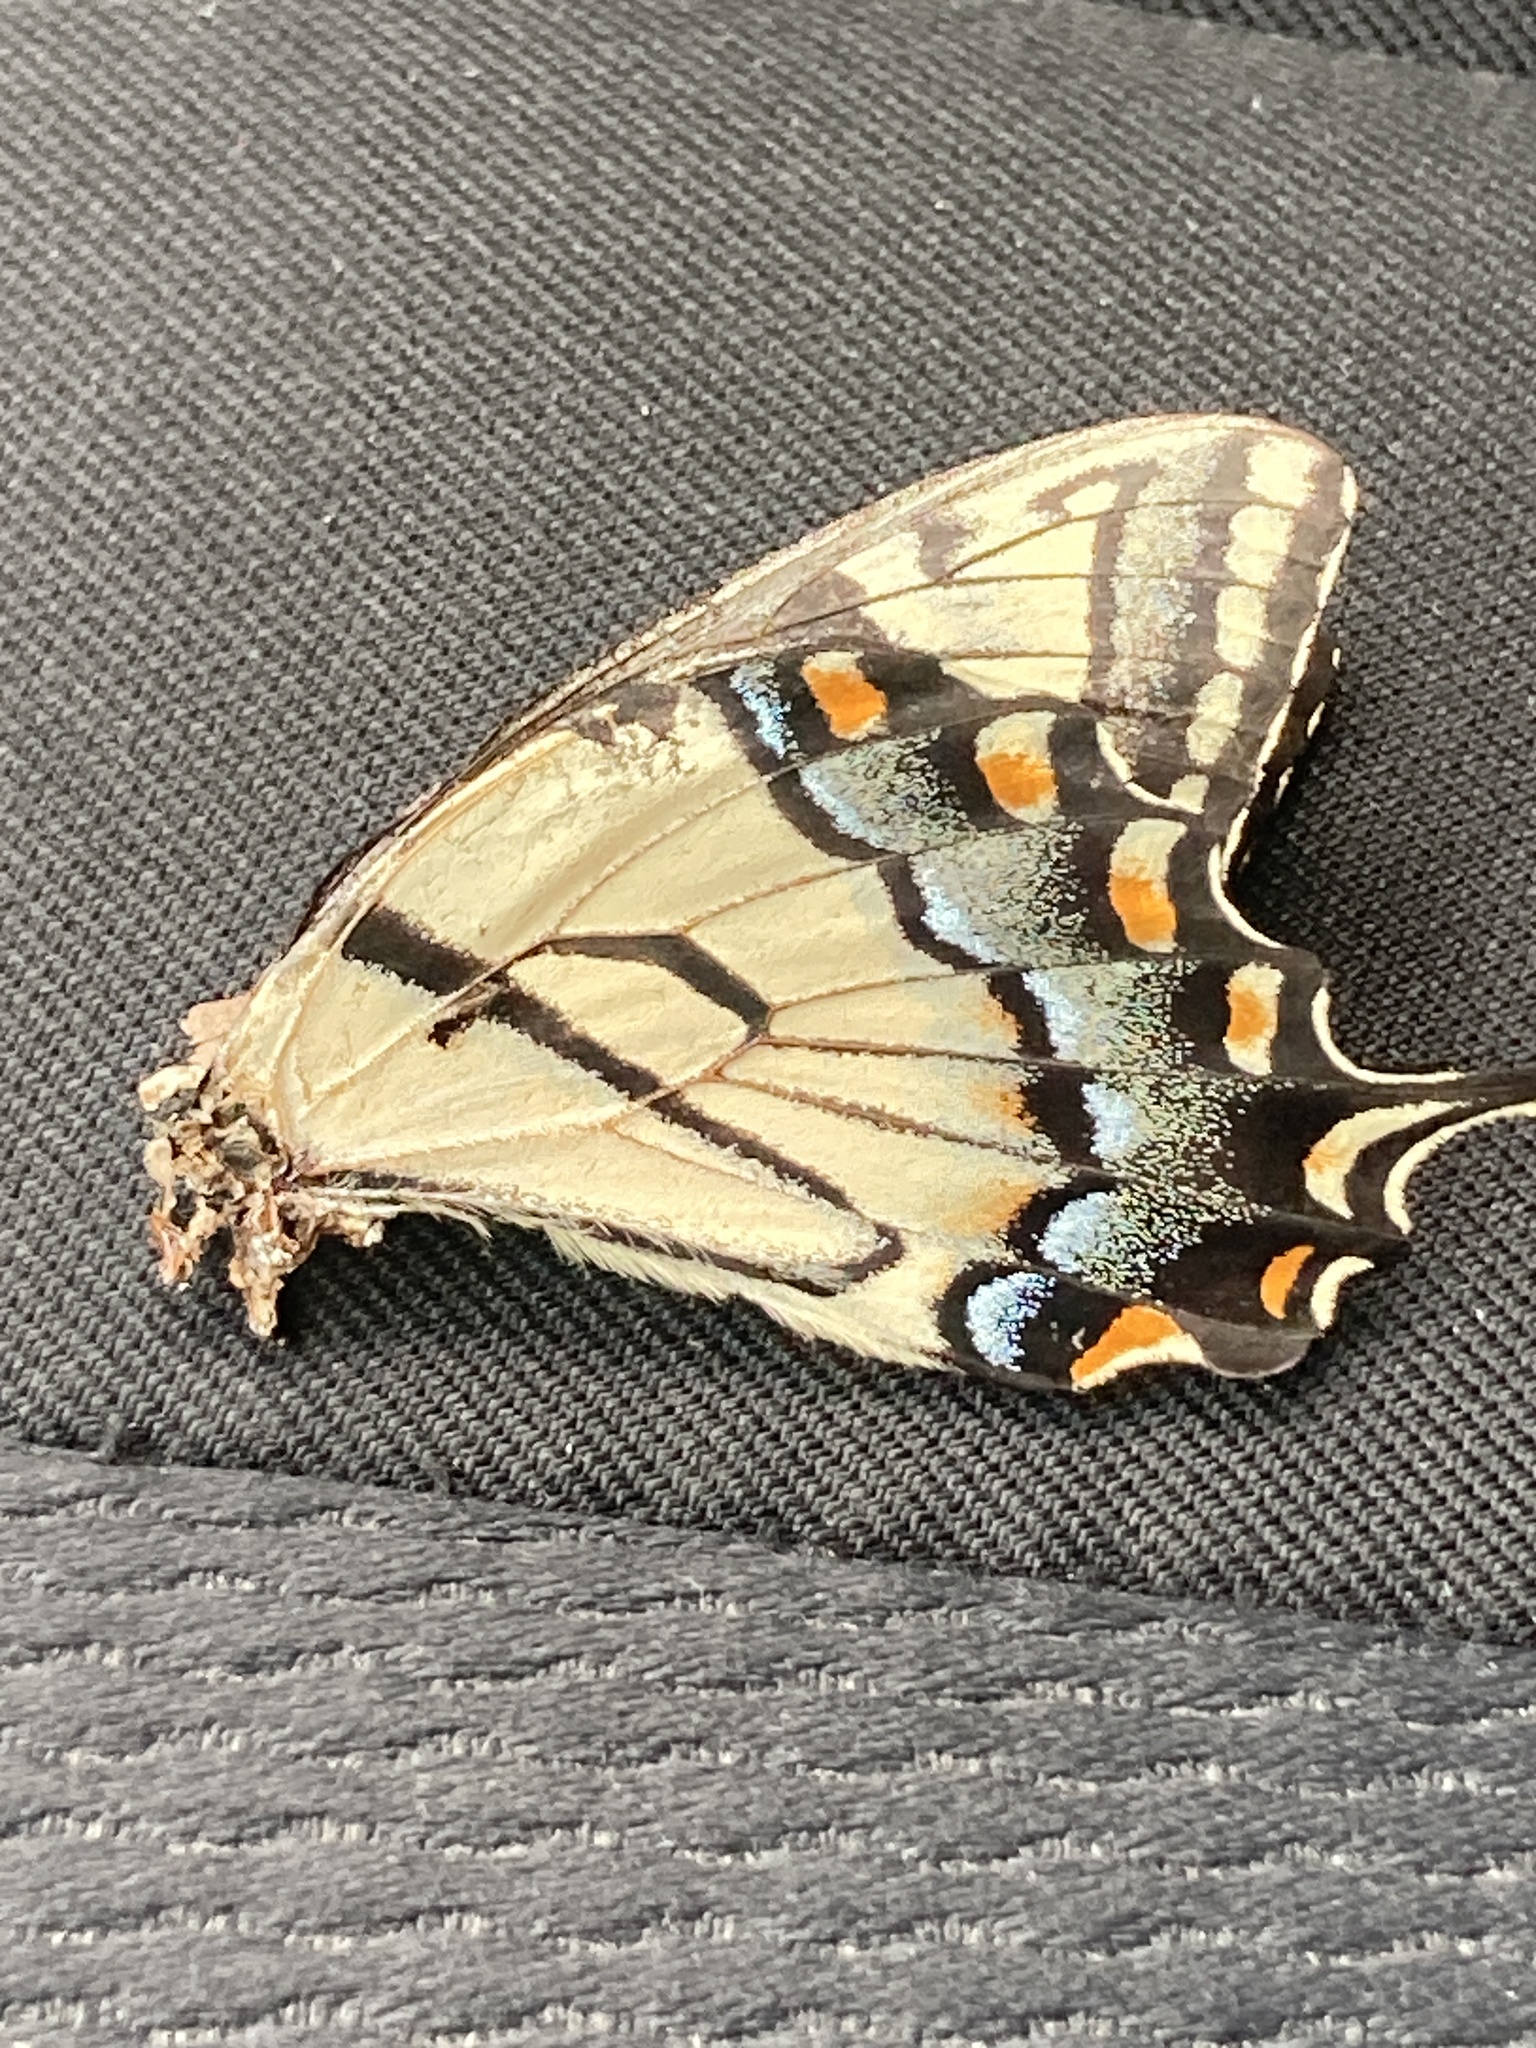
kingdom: Animalia
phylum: Arthropoda
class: Insecta
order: Lepidoptera
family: Papilionidae
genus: Papilio
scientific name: Papilio glaucus
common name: Tiger swallowtail
